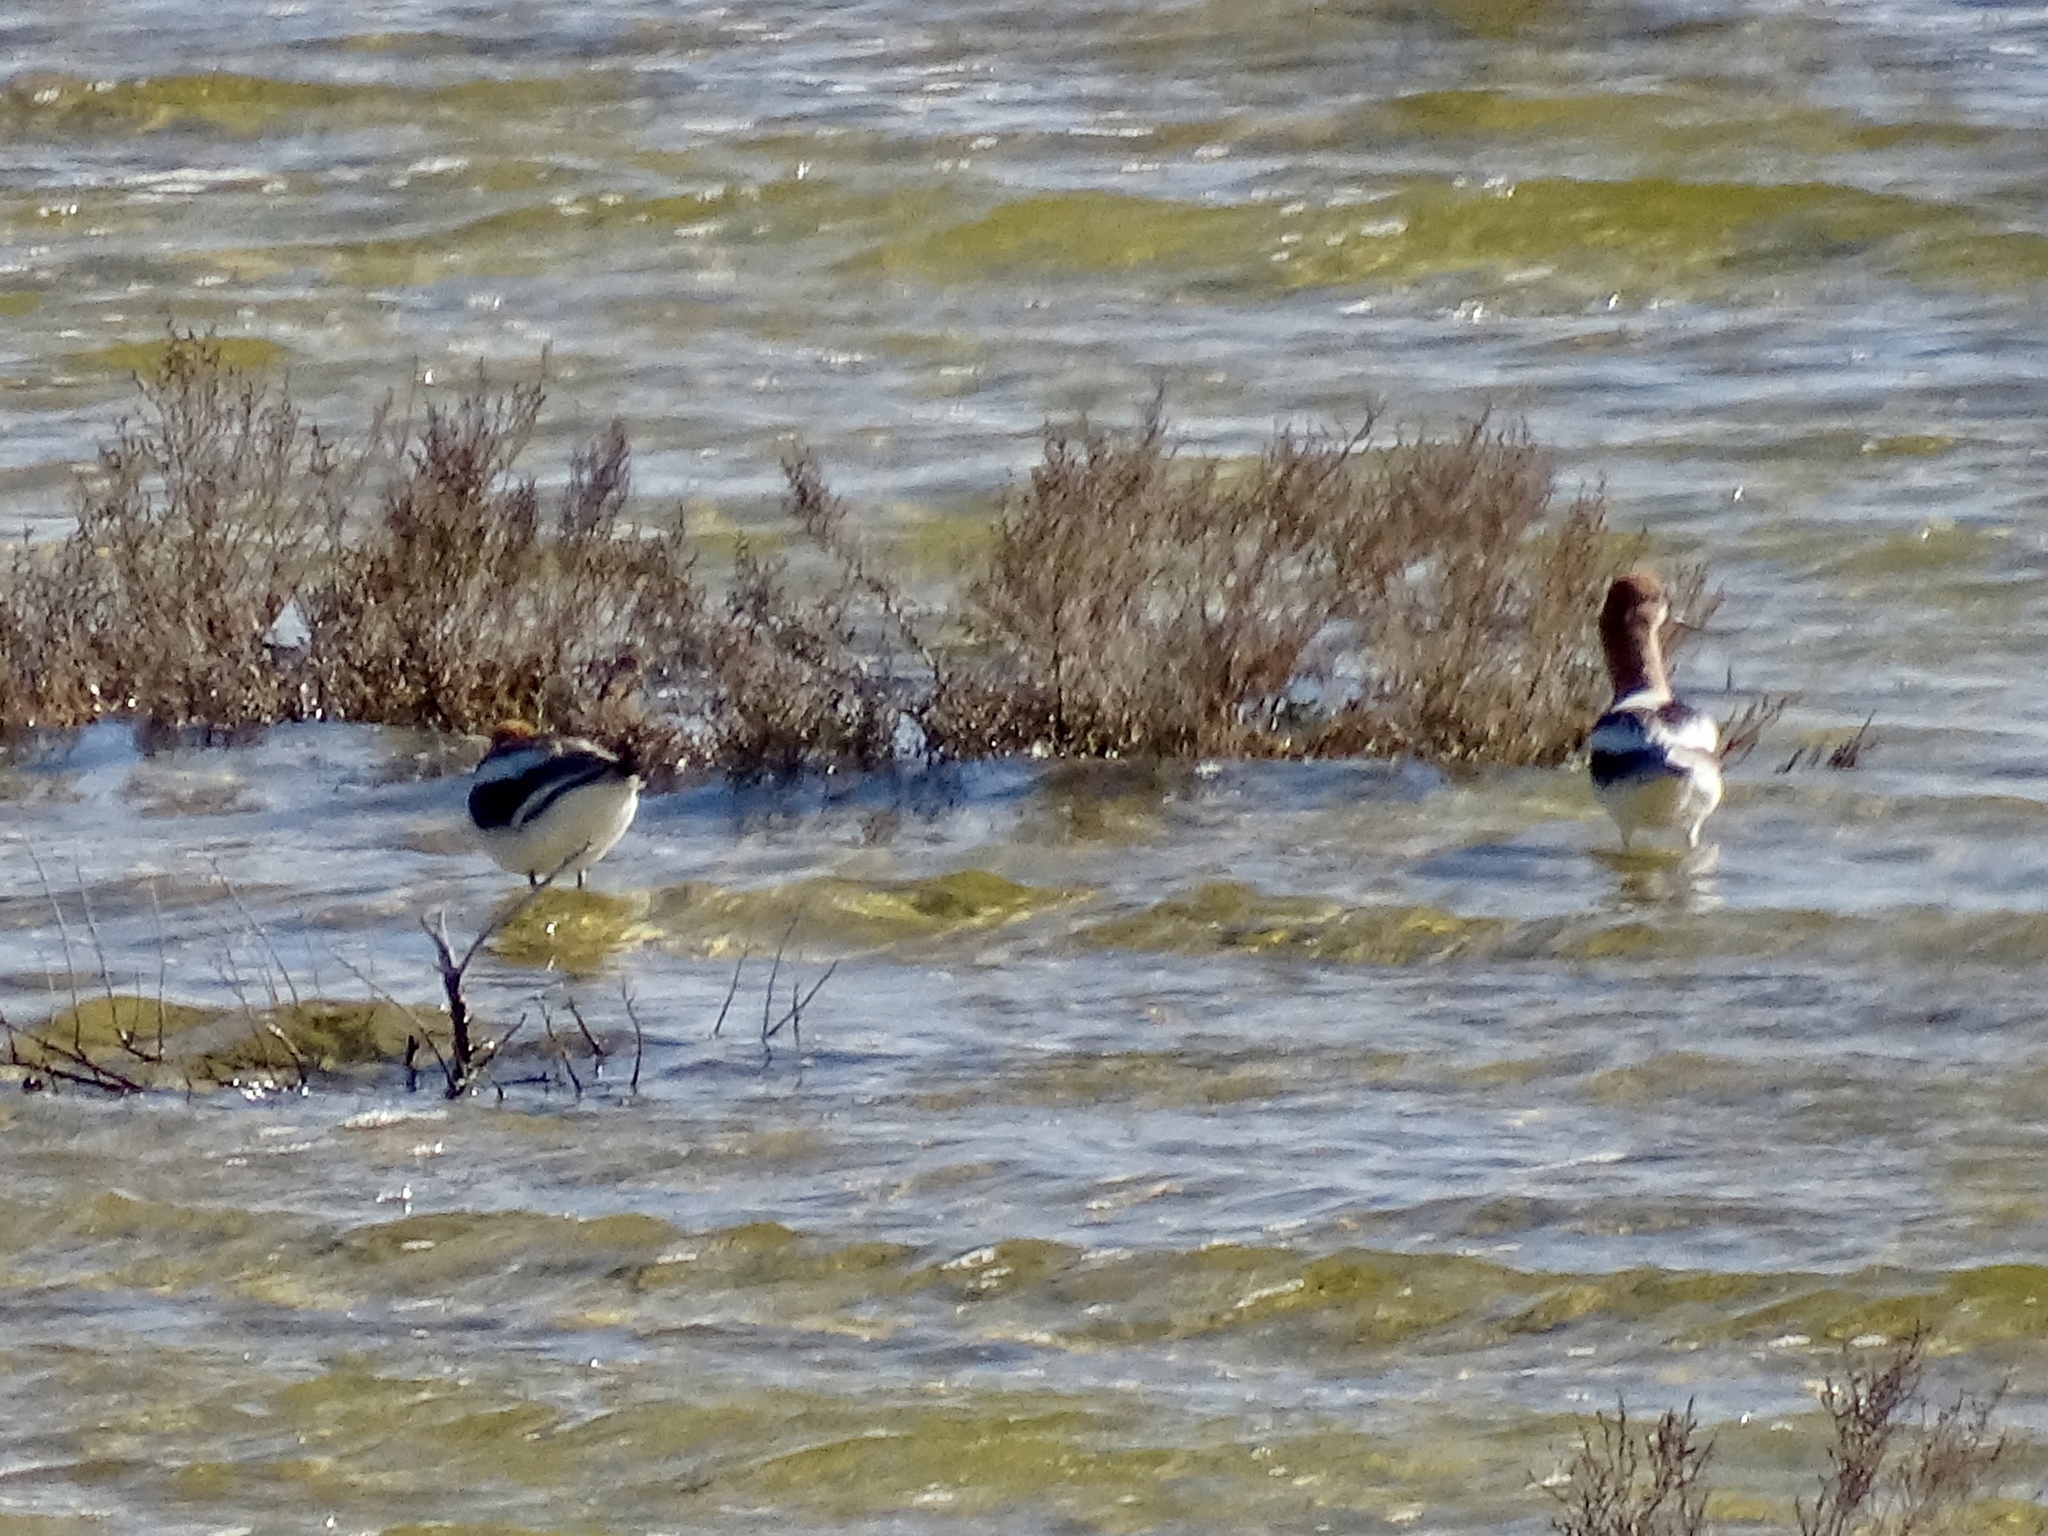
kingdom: Animalia
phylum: Chordata
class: Aves
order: Charadriiformes
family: Recurvirostridae
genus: Recurvirostra
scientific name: Recurvirostra americana
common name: American avocet
